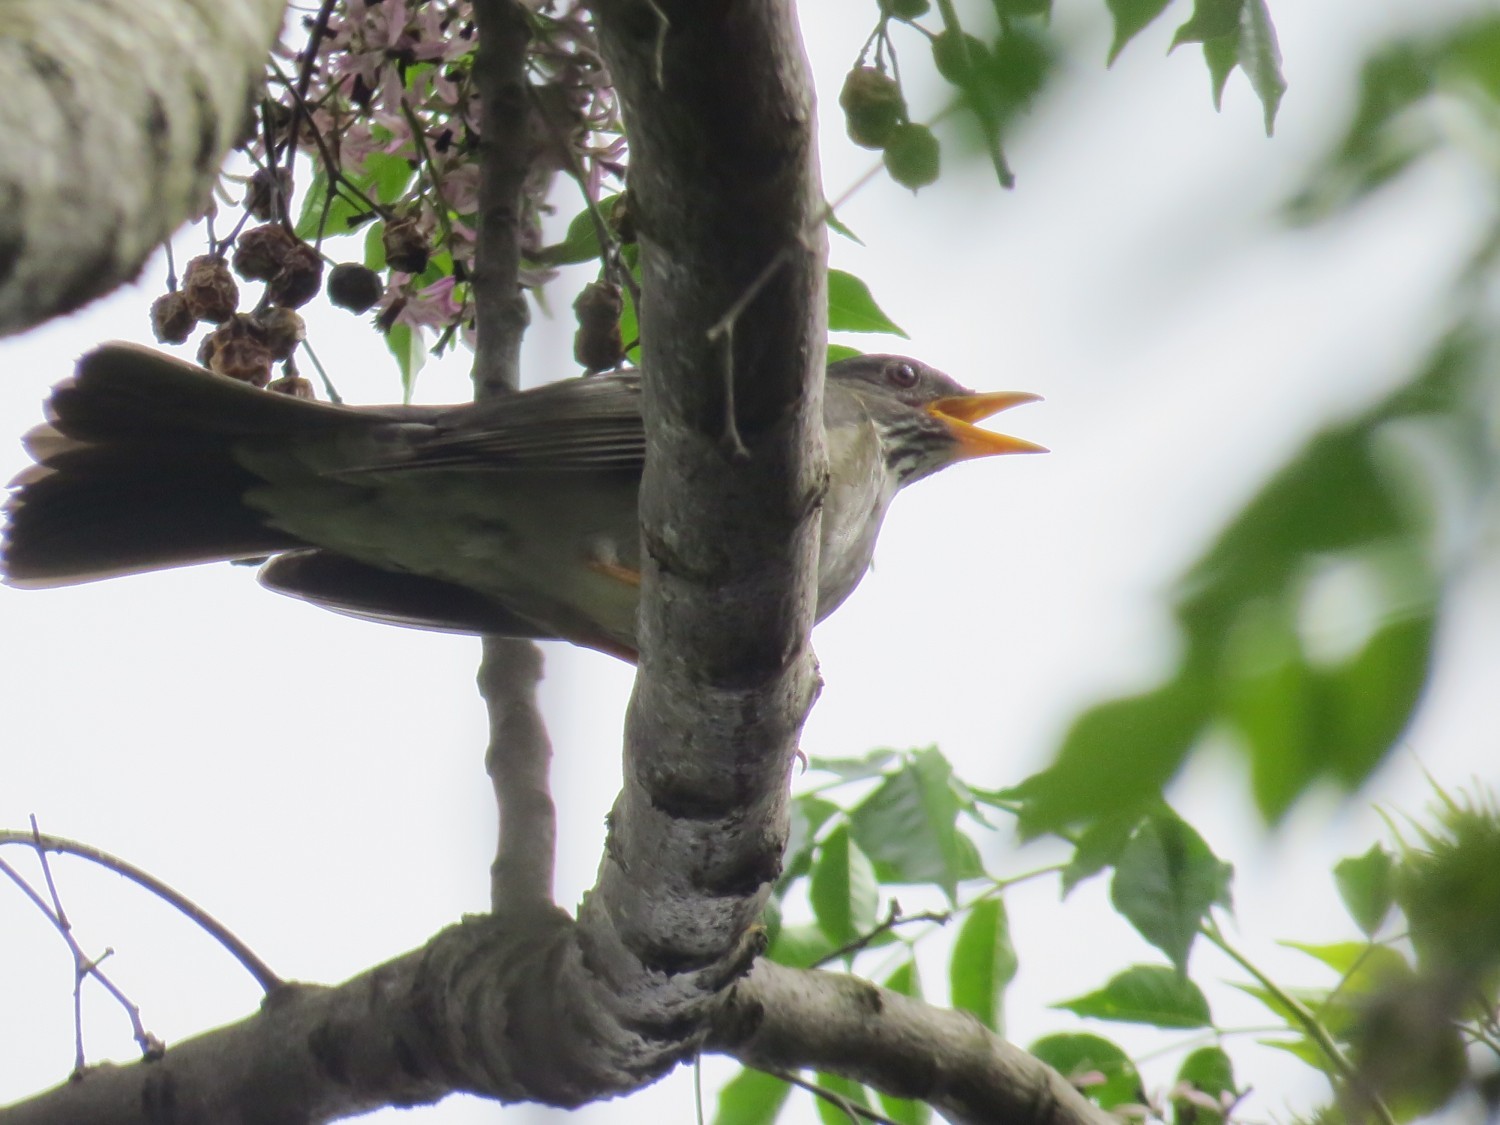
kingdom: Animalia
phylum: Chordata
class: Aves
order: Passeriformes
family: Turdidae
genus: Turdus
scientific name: Turdus subalaris
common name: Eastern slaty thrush
